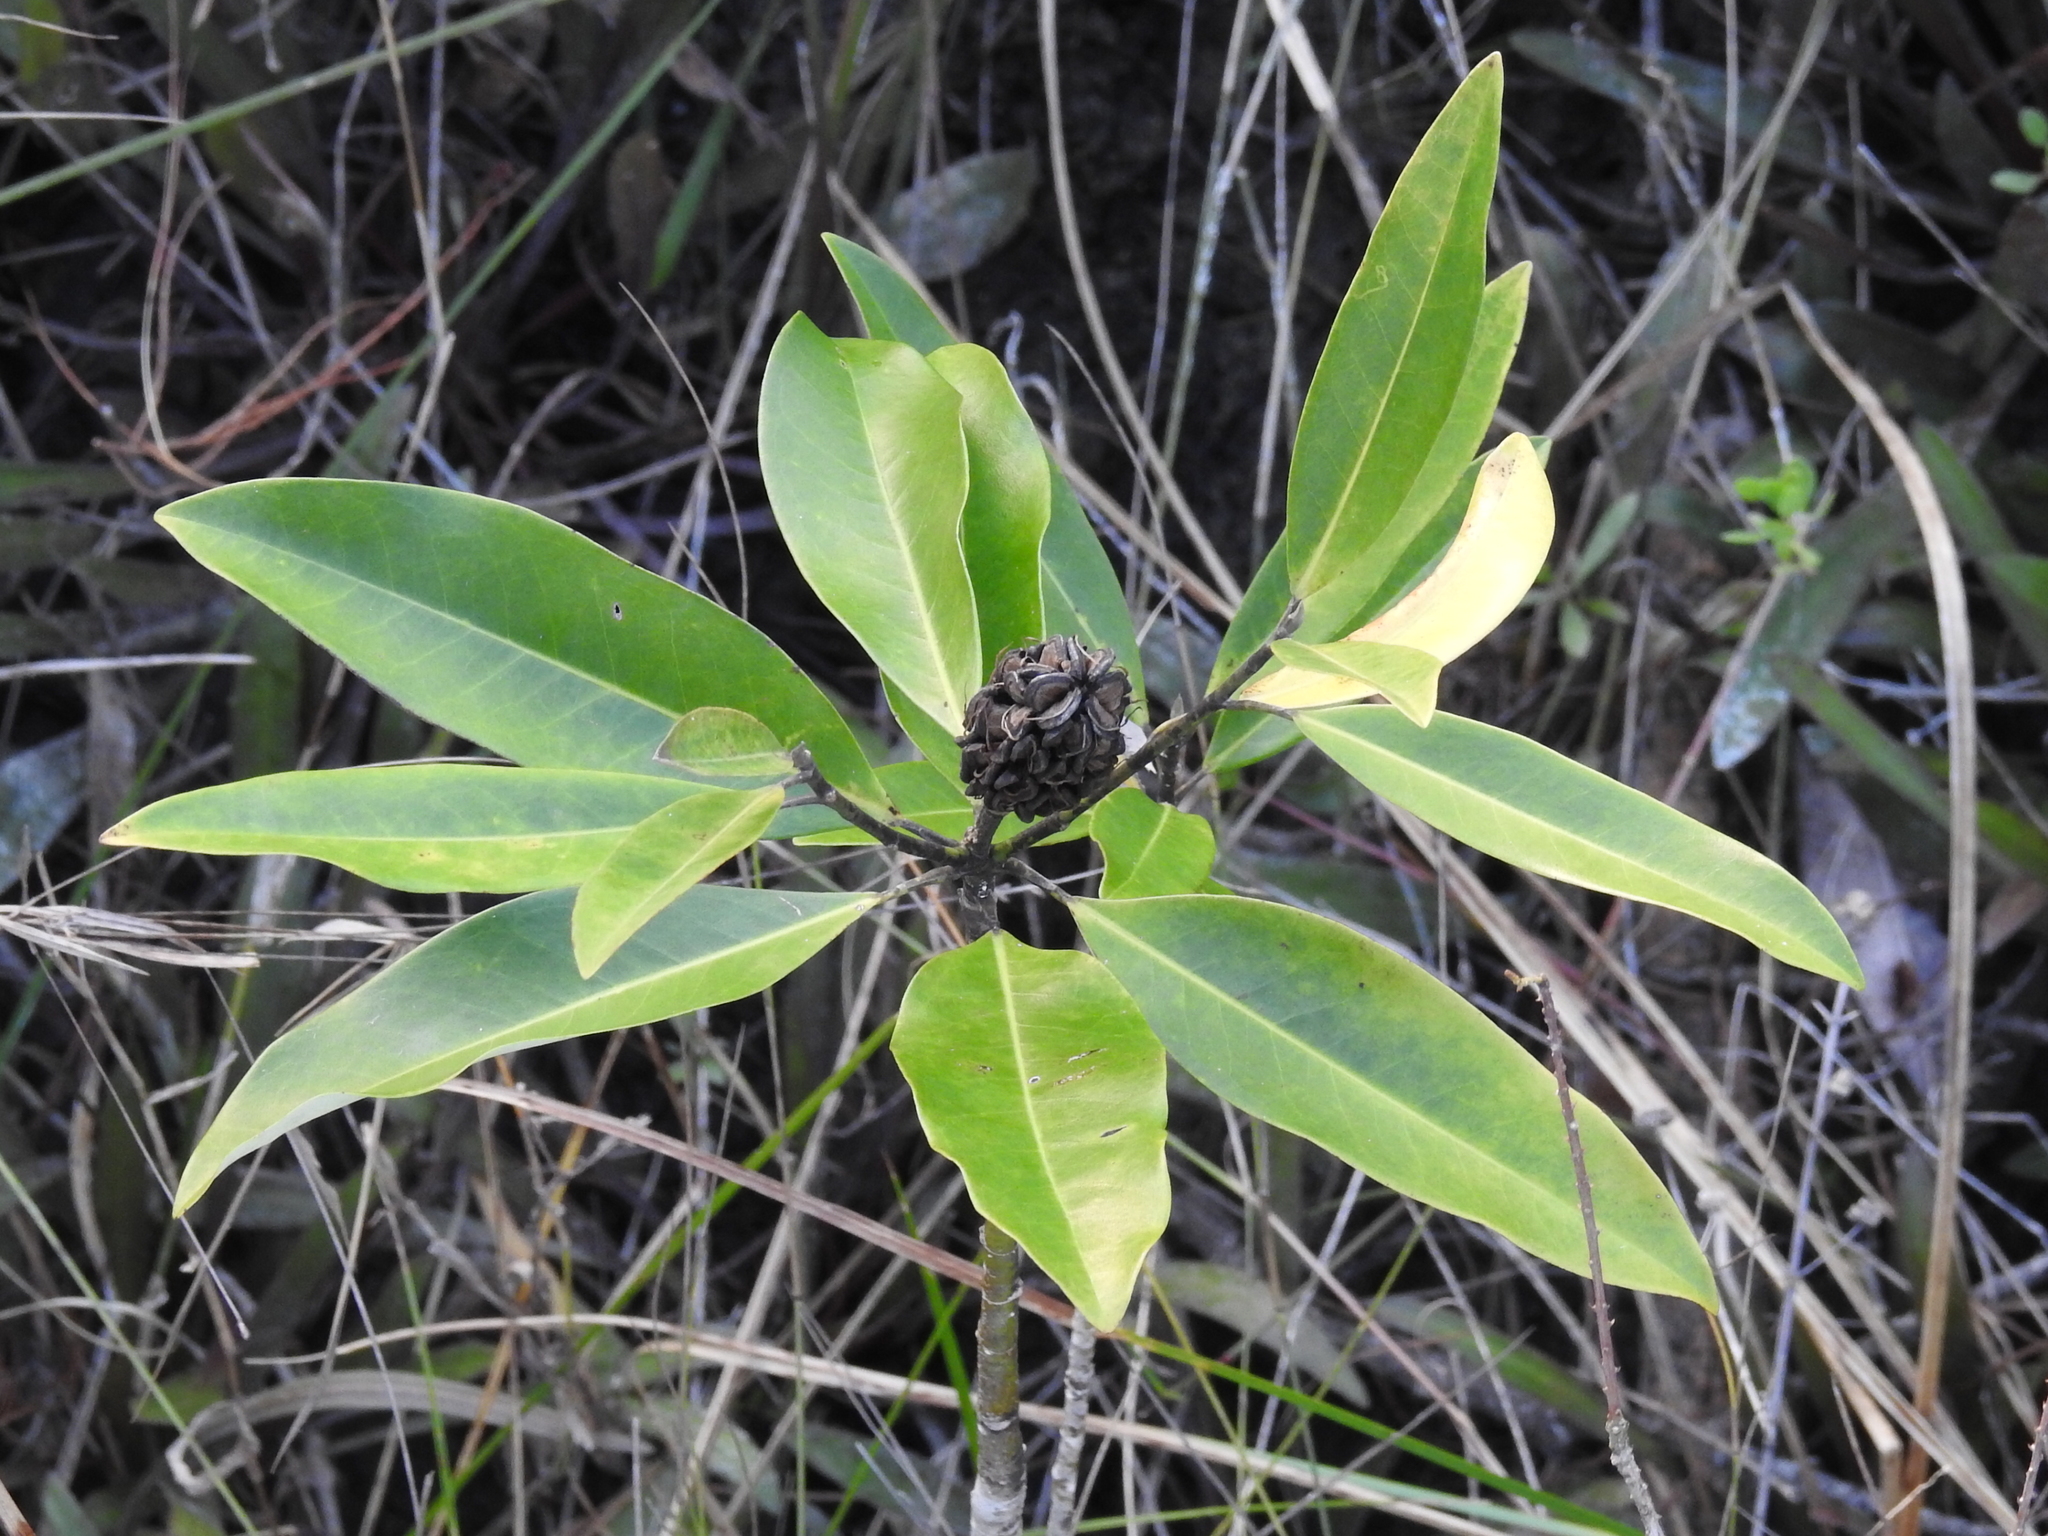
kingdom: Plantae
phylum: Tracheophyta
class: Magnoliopsida
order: Magnoliales
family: Magnoliaceae
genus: Magnolia
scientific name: Magnolia virginiana
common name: Swamp bay
